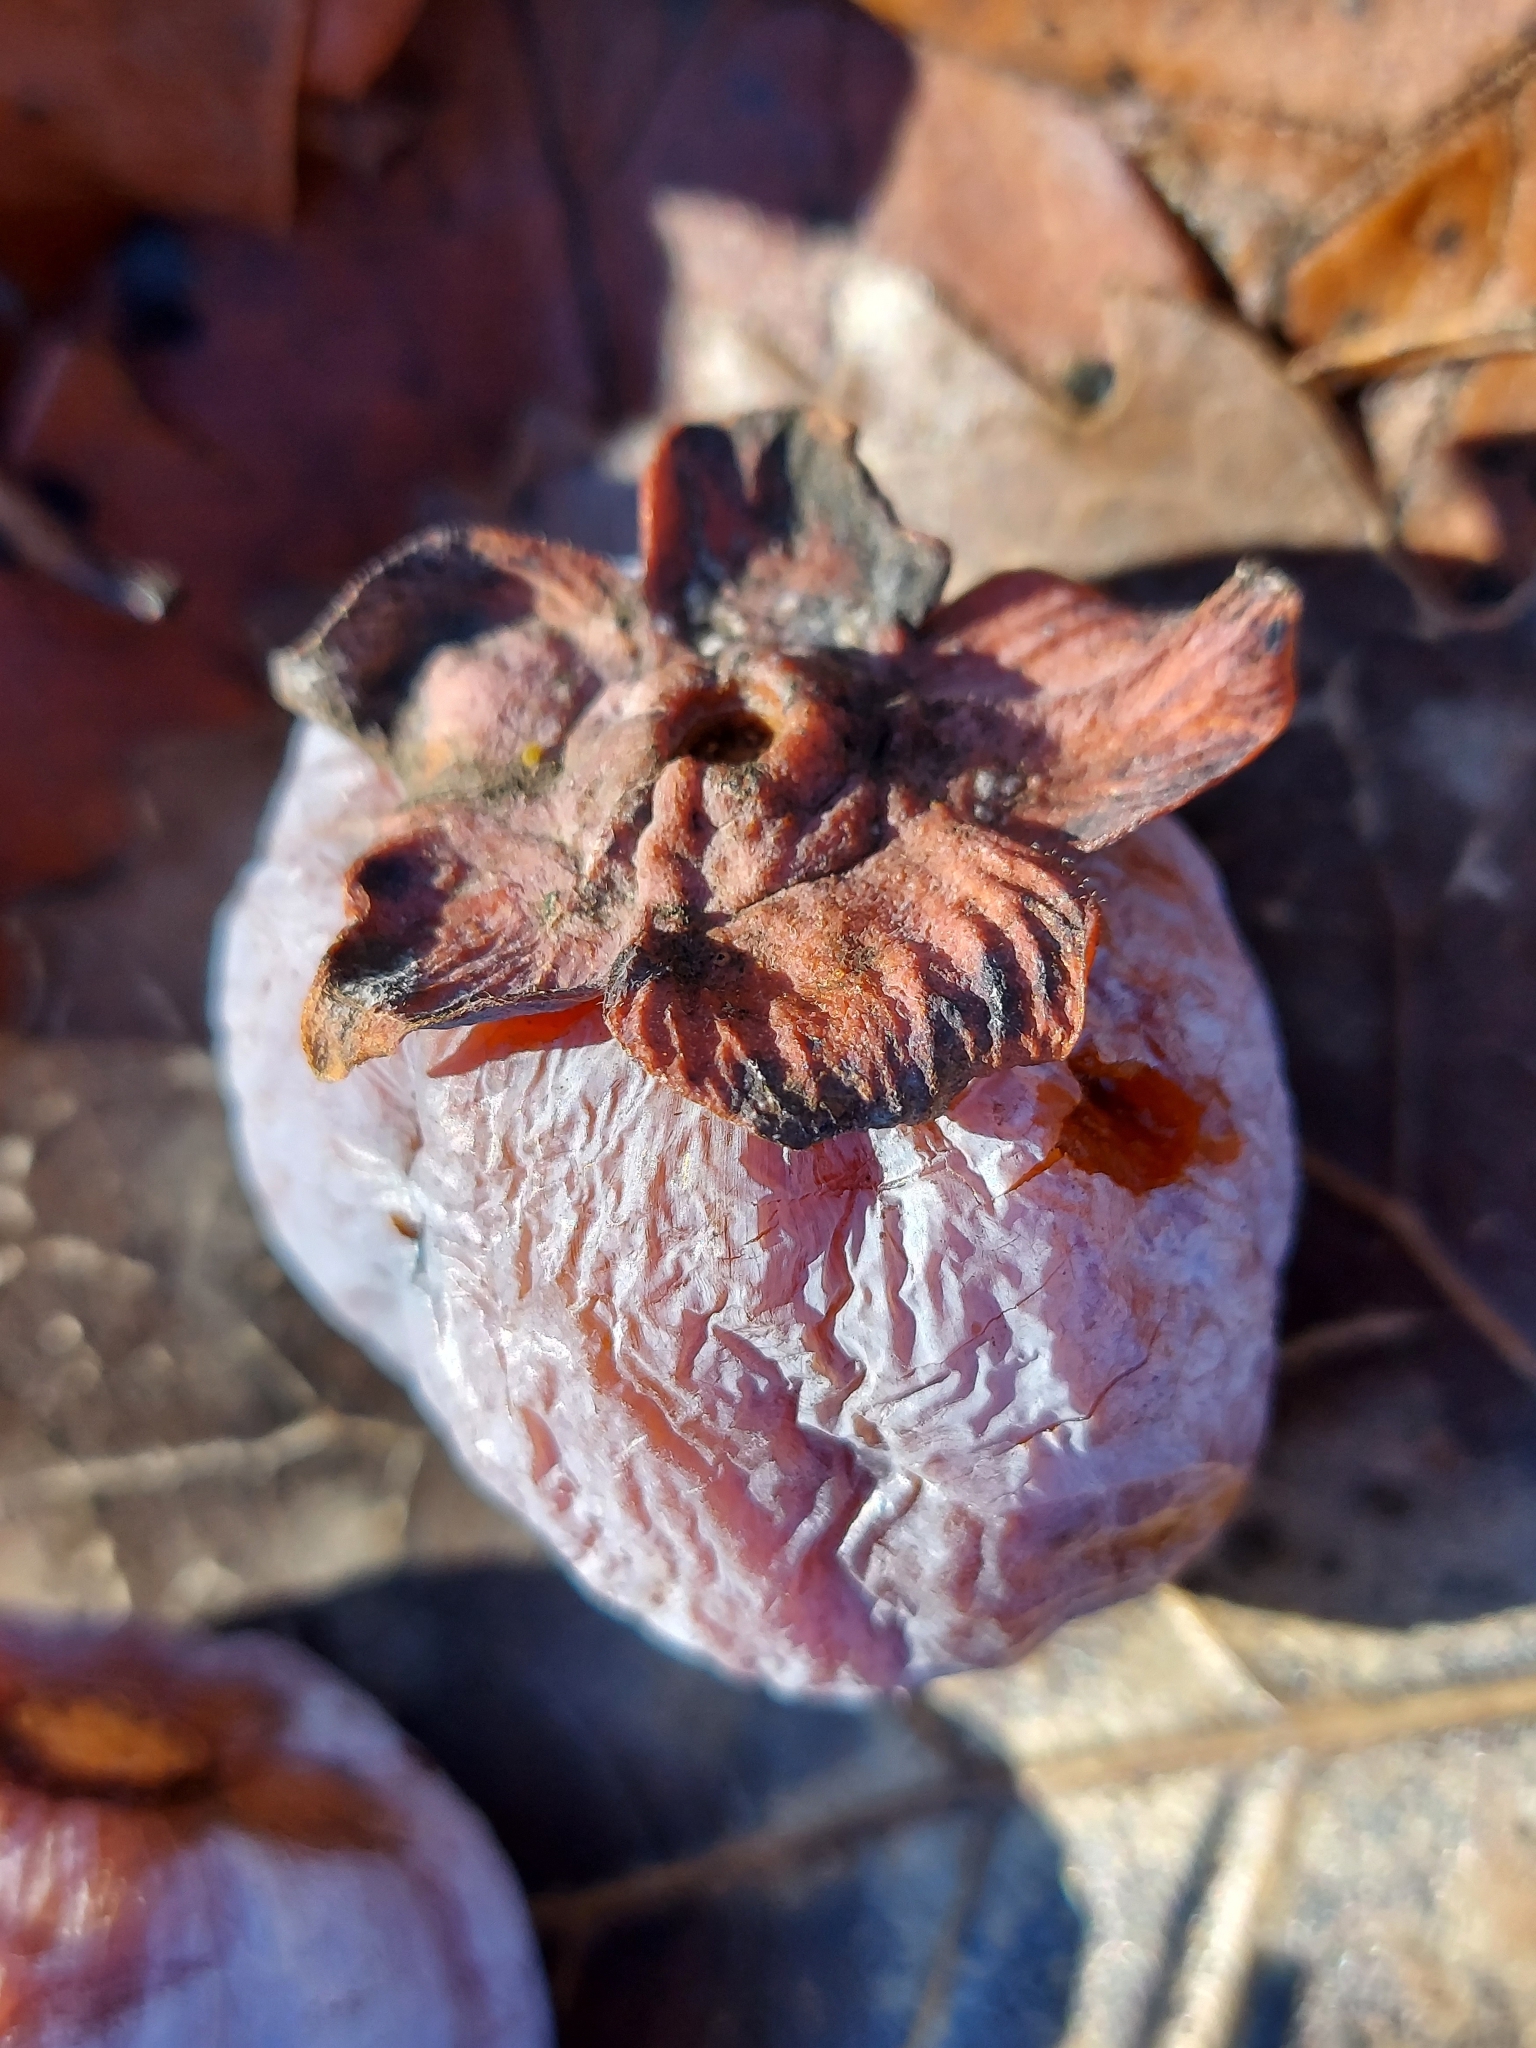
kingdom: Plantae
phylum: Tracheophyta
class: Magnoliopsida
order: Ericales
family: Ebenaceae
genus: Diospyros
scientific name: Diospyros virginiana
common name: Persimmon
